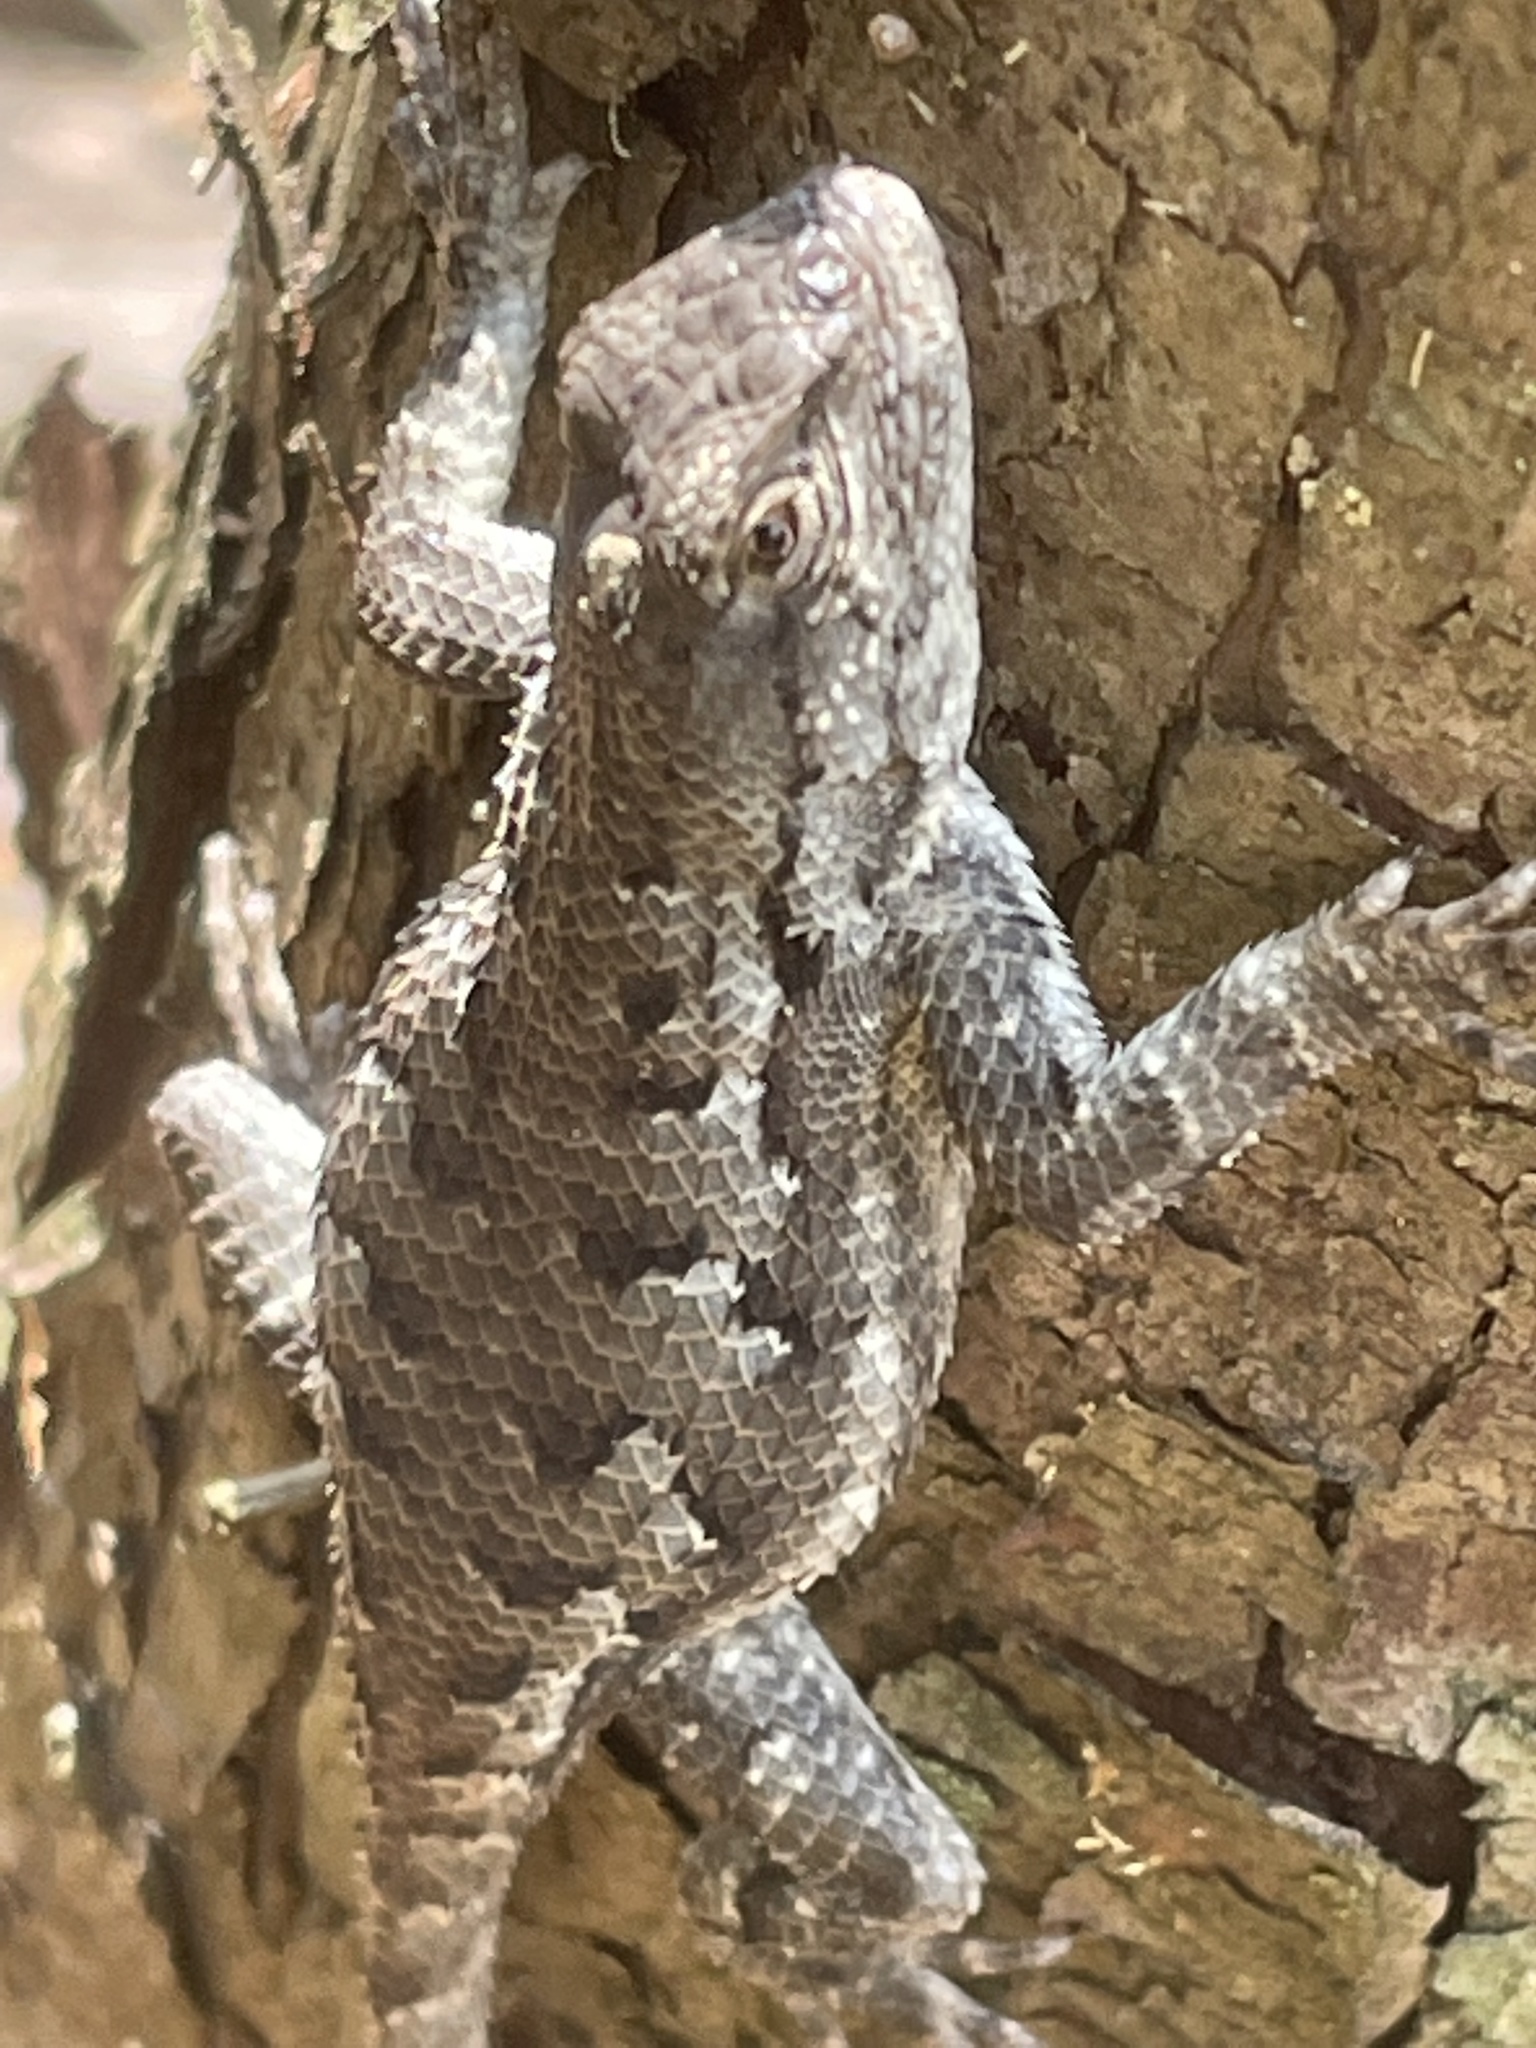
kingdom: Animalia
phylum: Chordata
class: Squamata
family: Phrynosomatidae
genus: Sceloporus
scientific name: Sceloporus undulatus
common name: Eastern fence lizard
